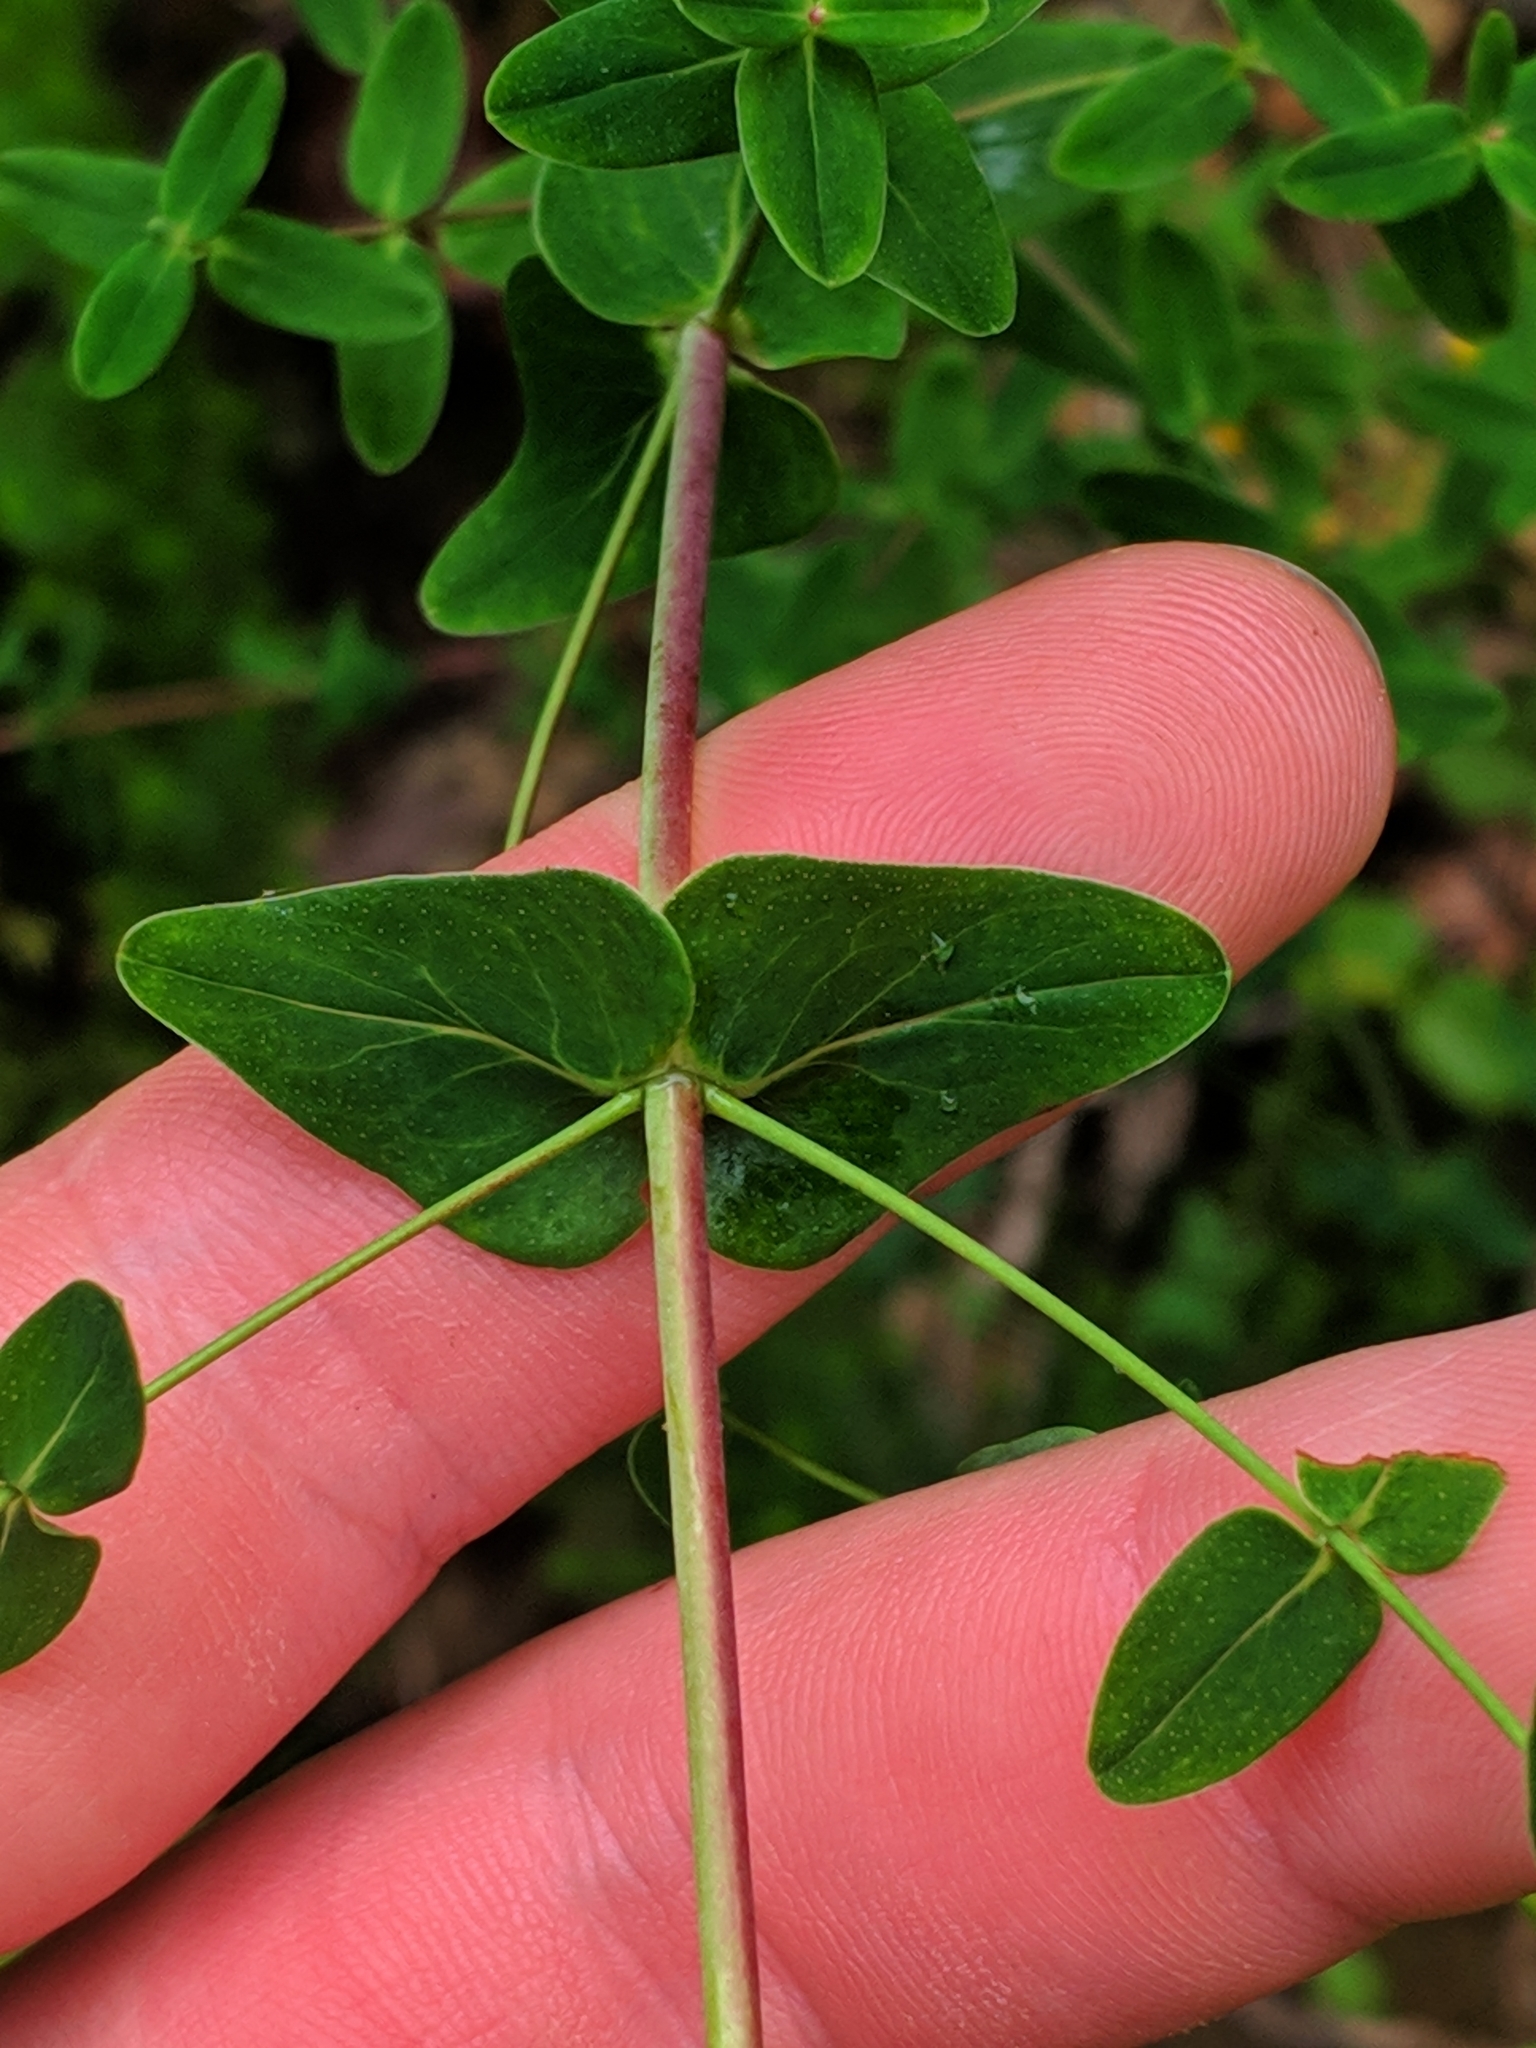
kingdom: Plantae
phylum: Tracheophyta
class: Magnoliopsida
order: Malpighiales
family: Hypericaceae
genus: Hypericum
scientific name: Hypericum pulchrum
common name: Slender st. john's-wort
